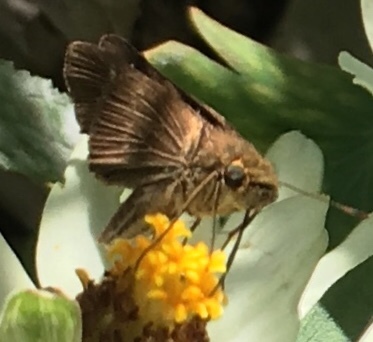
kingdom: Animalia
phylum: Arthropoda
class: Insecta
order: Lepidoptera
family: Hesperiidae
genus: Panoquina
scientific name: Panoquina ocola
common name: Ocola skipper
